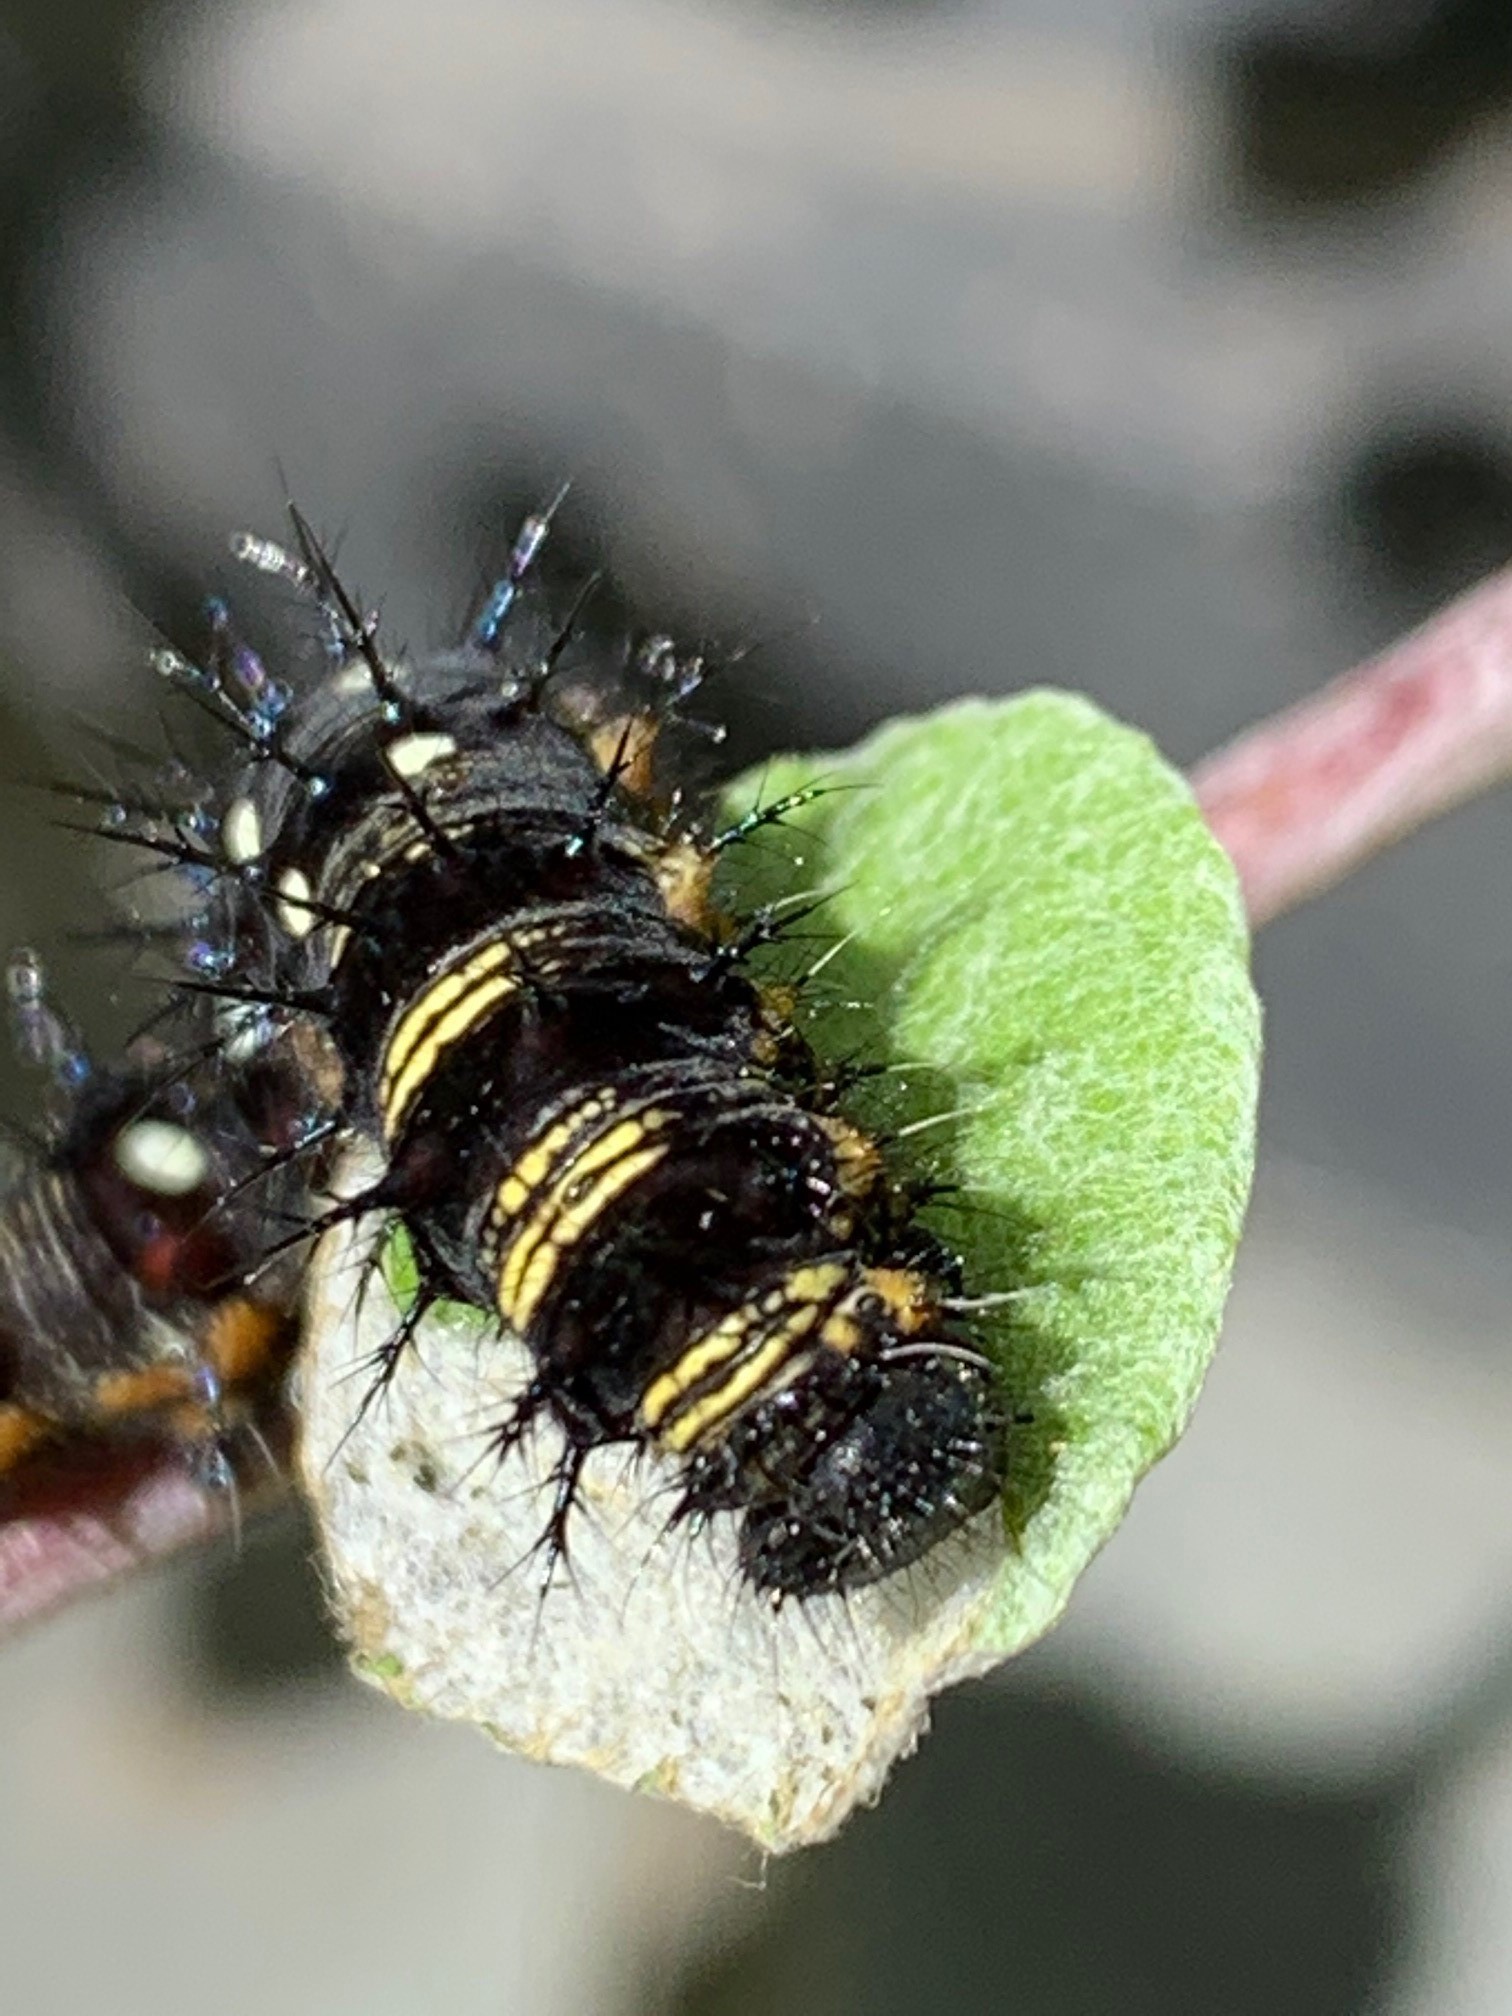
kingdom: Animalia
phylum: Arthropoda
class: Insecta
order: Lepidoptera
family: Nymphalidae
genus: Vanessa
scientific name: Vanessa virginiensis
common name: American lady
